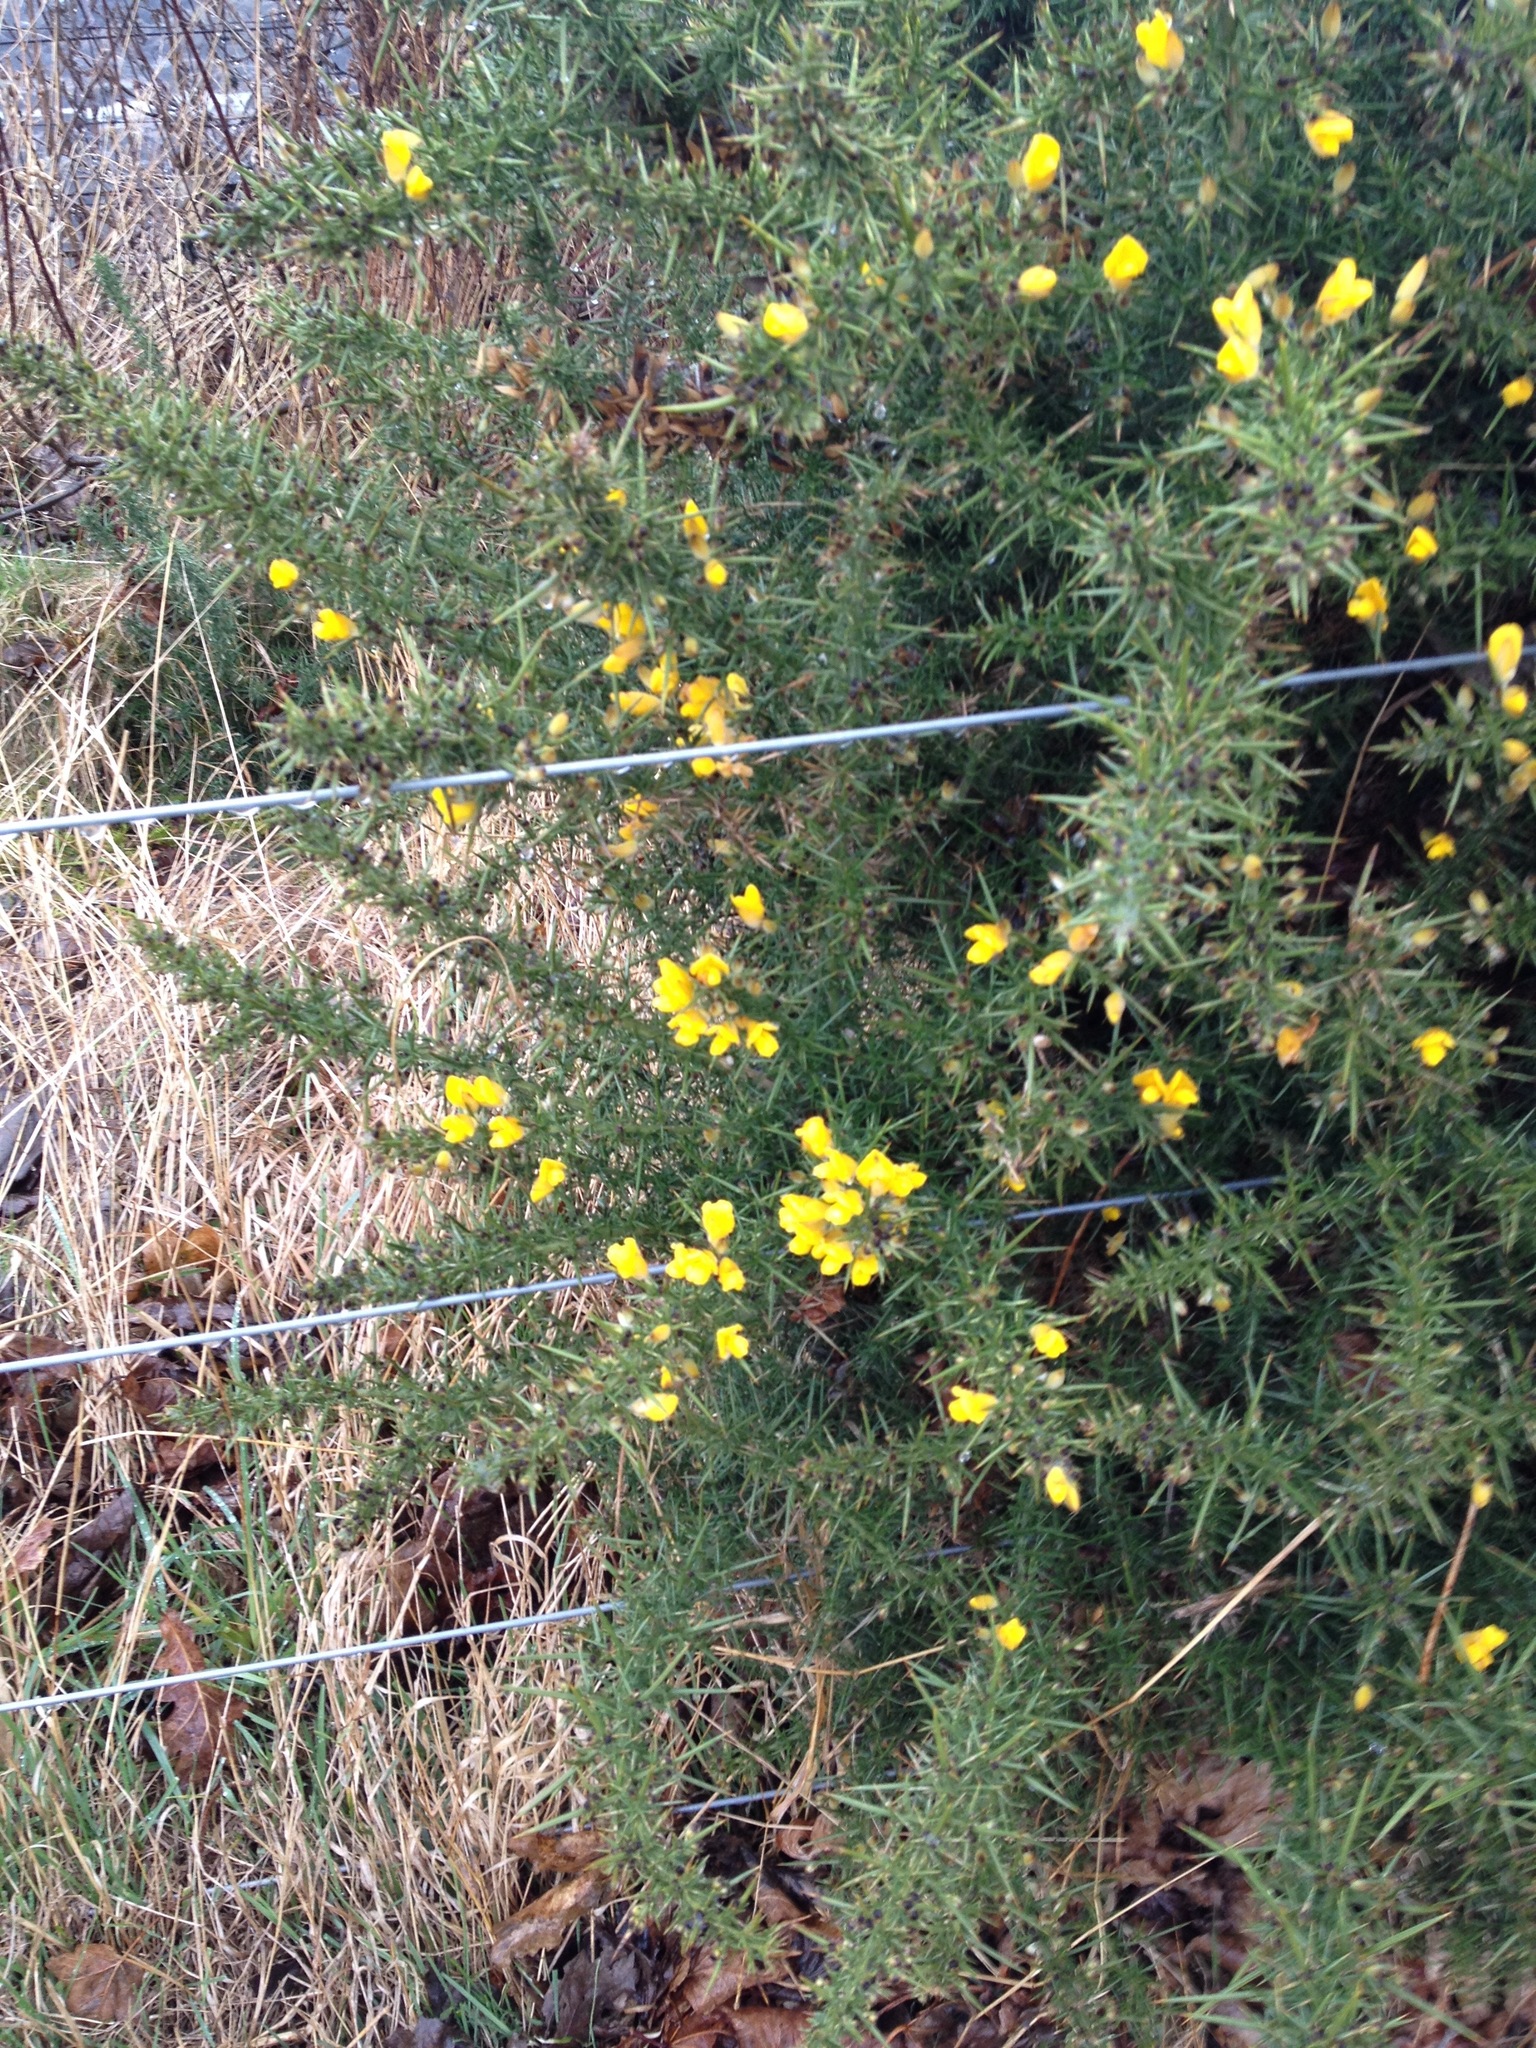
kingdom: Plantae
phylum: Tracheophyta
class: Magnoliopsida
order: Fabales
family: Fabaceae
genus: Ulex
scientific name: Ulex europaeus
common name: Common gorse
